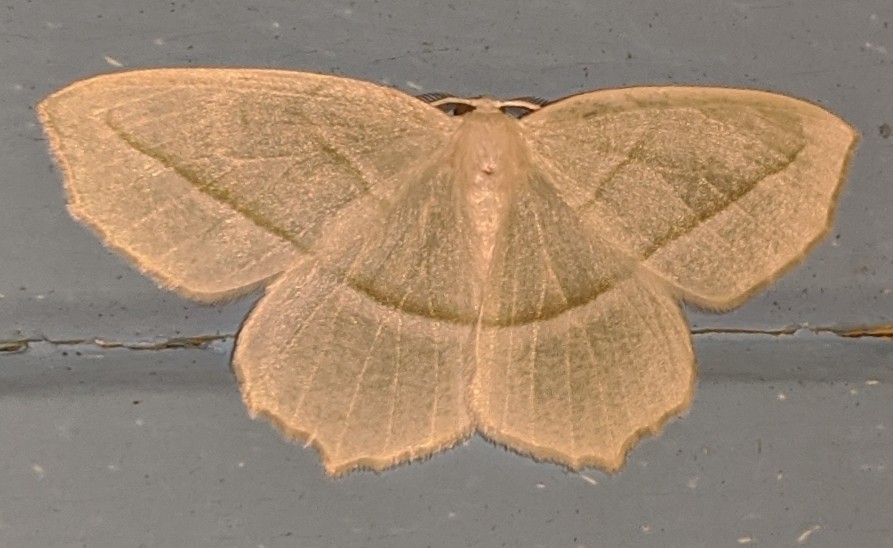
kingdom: Animalia
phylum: Arthropoda
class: Insecta
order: Lepidoptera
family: Geometridae
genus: Campaea
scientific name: Campaea perlata
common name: Fringed looper
